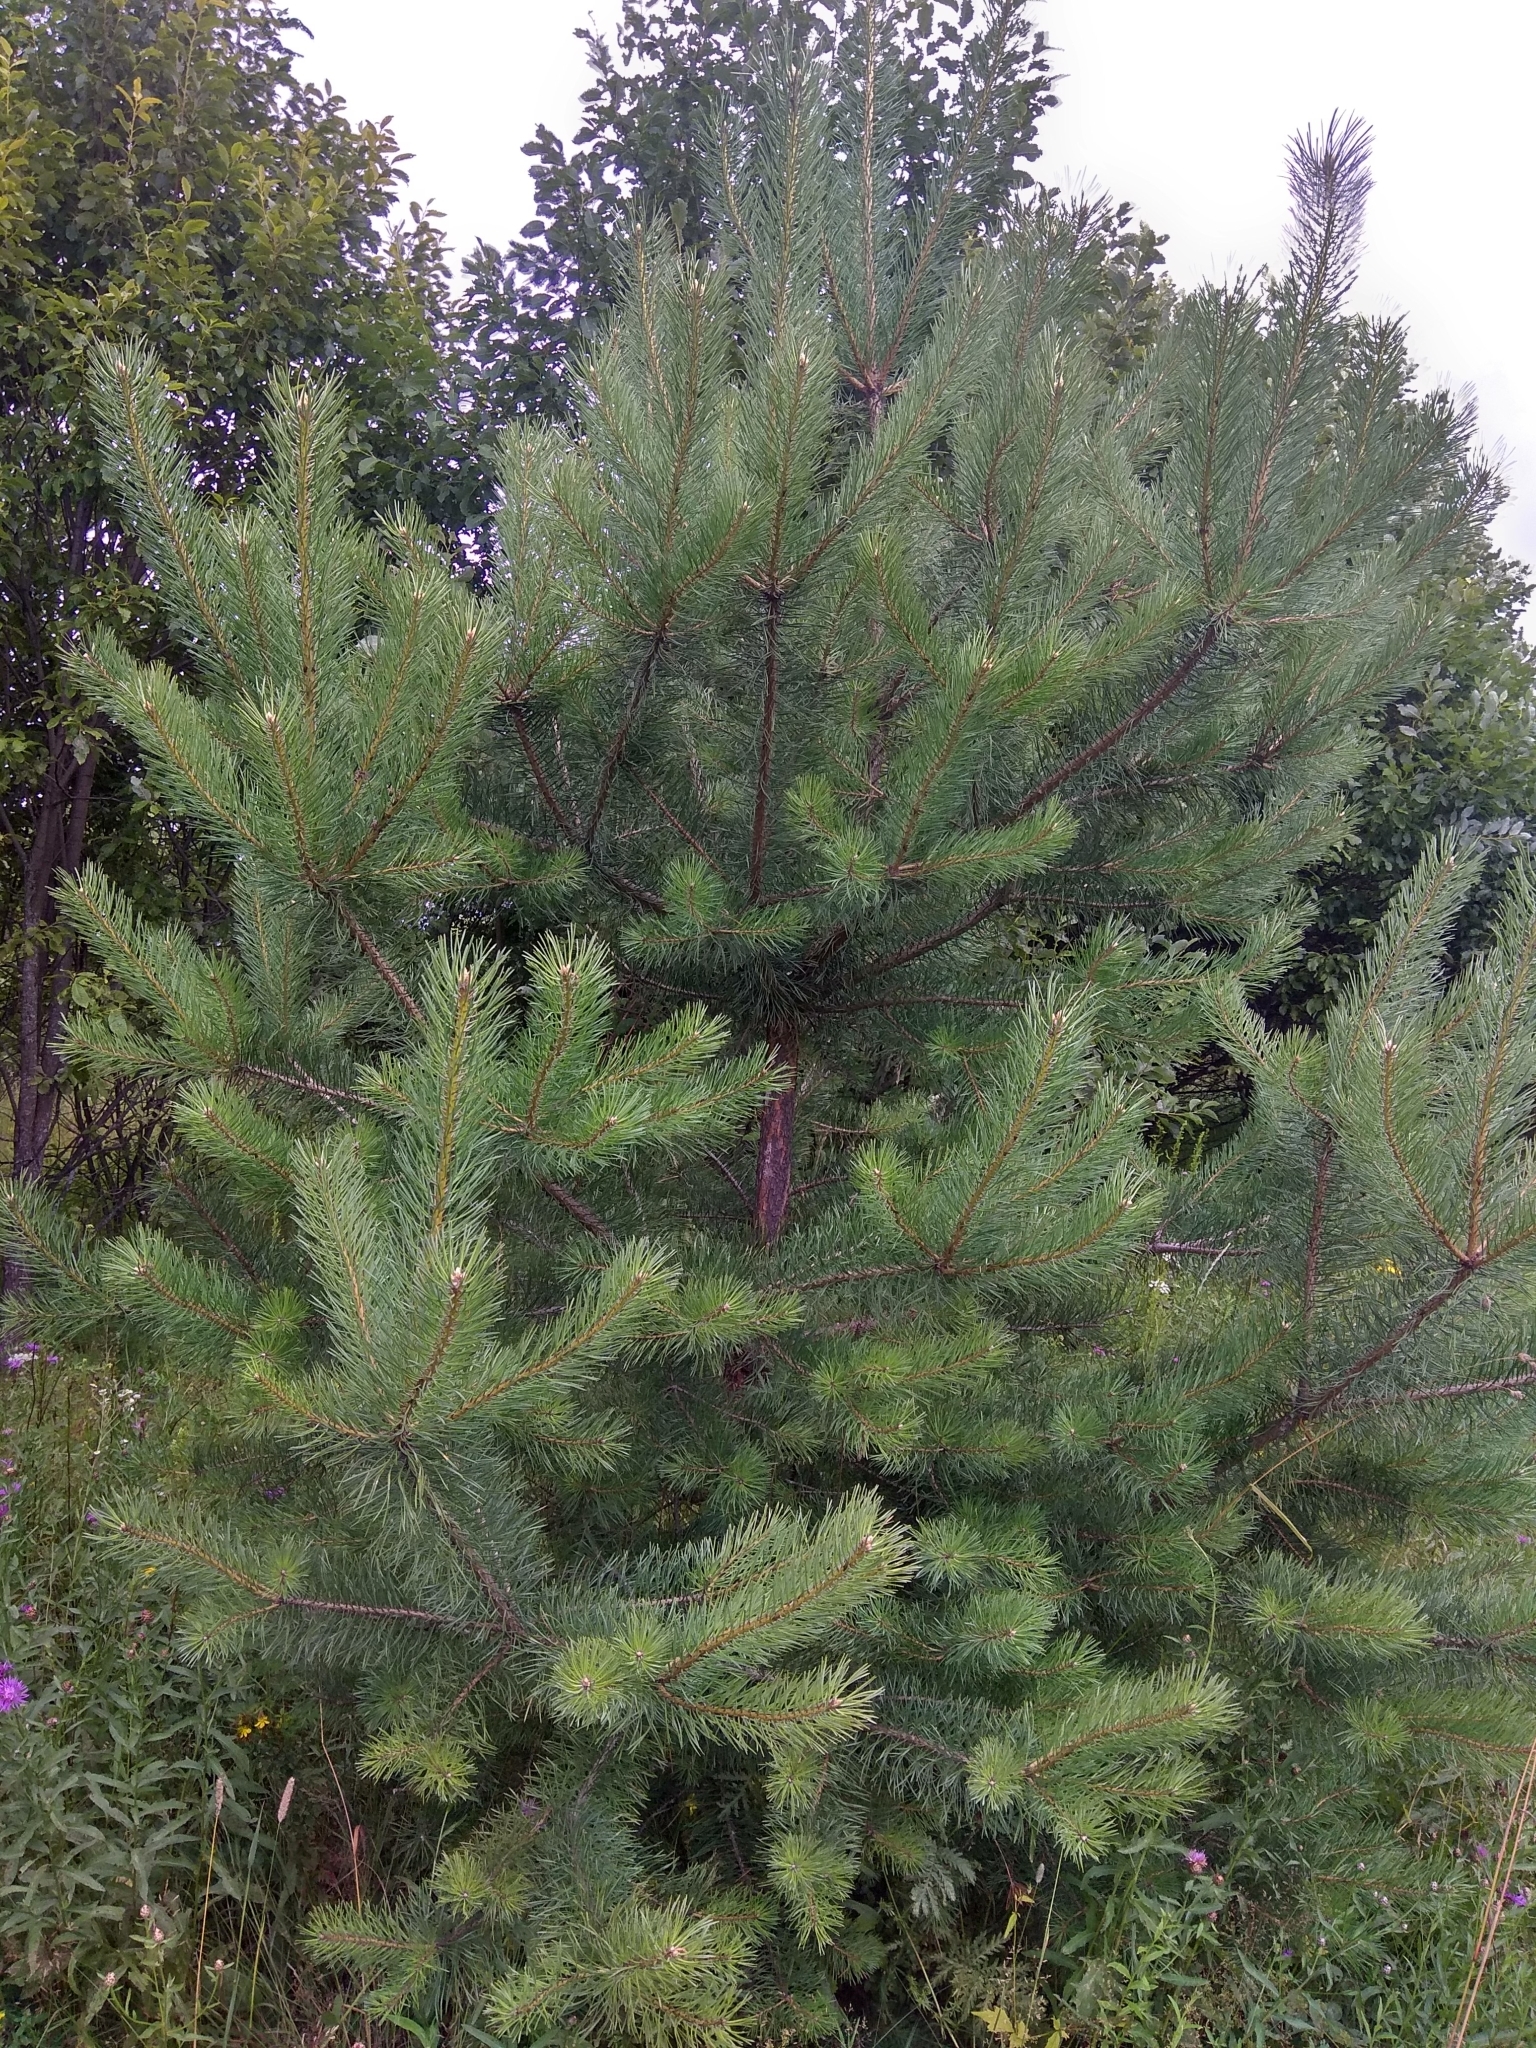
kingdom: Plantae
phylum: Tracheophyta
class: Pinopsida
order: Pinales
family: Pinaceae
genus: Pinus
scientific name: Pinus sylvestris
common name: Scots pine
